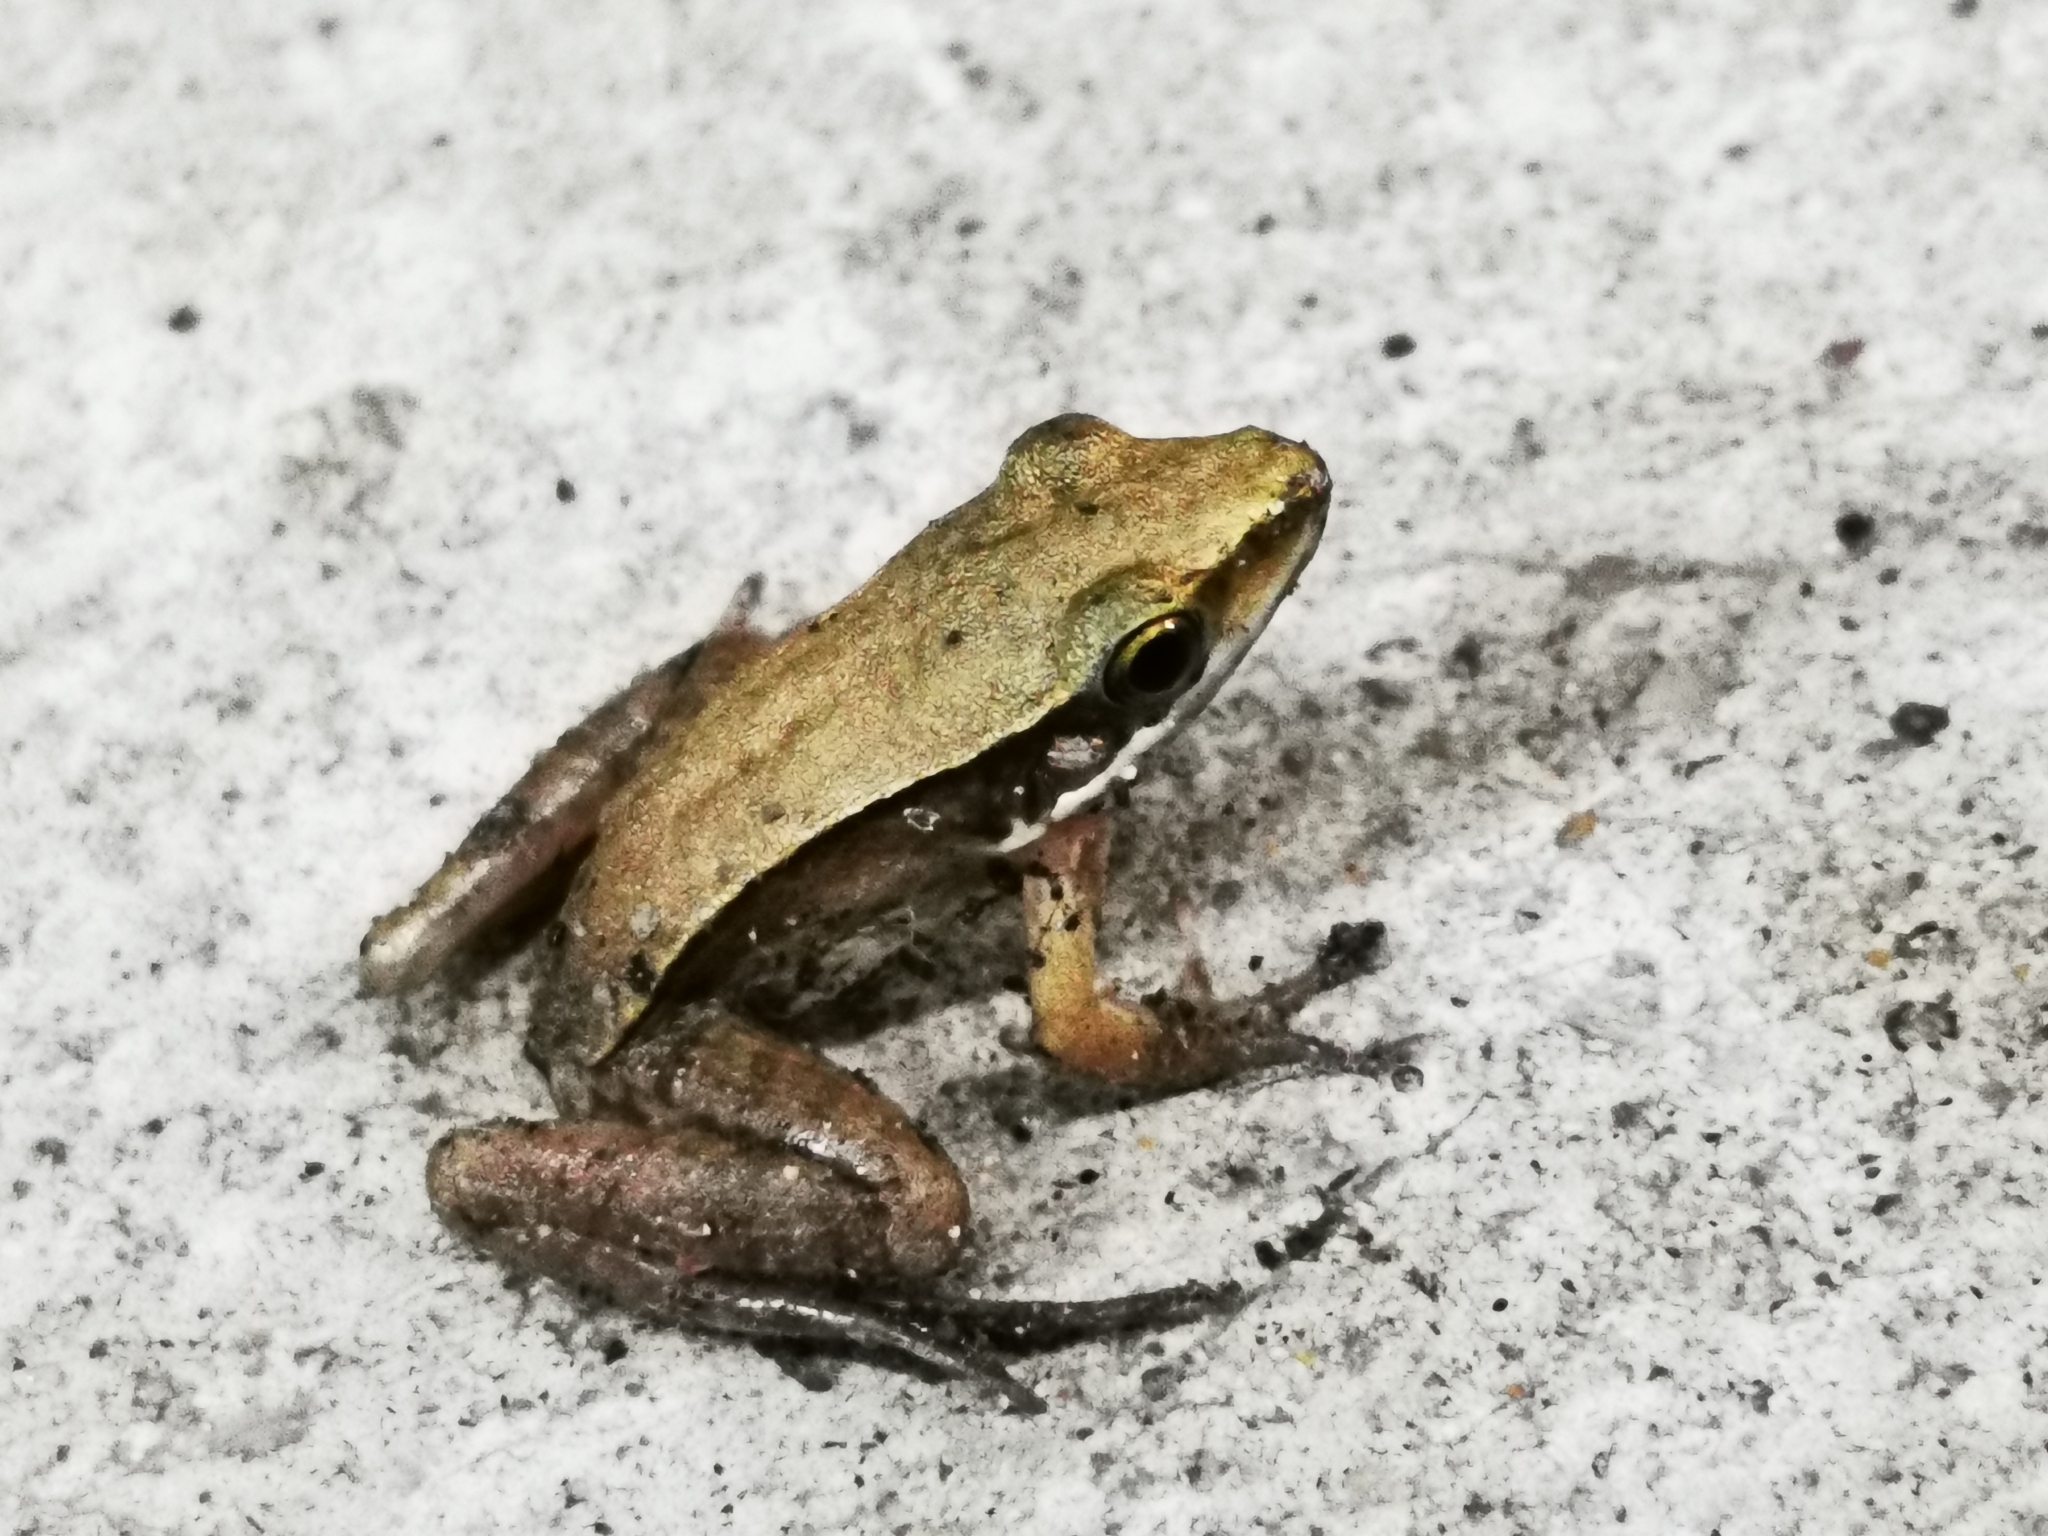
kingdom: Animalia
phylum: Chordata
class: Amphibia
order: Anura
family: Ranidae
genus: Sylvirana
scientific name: Sylvirana guentheri
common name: Guenther's amoy frog
